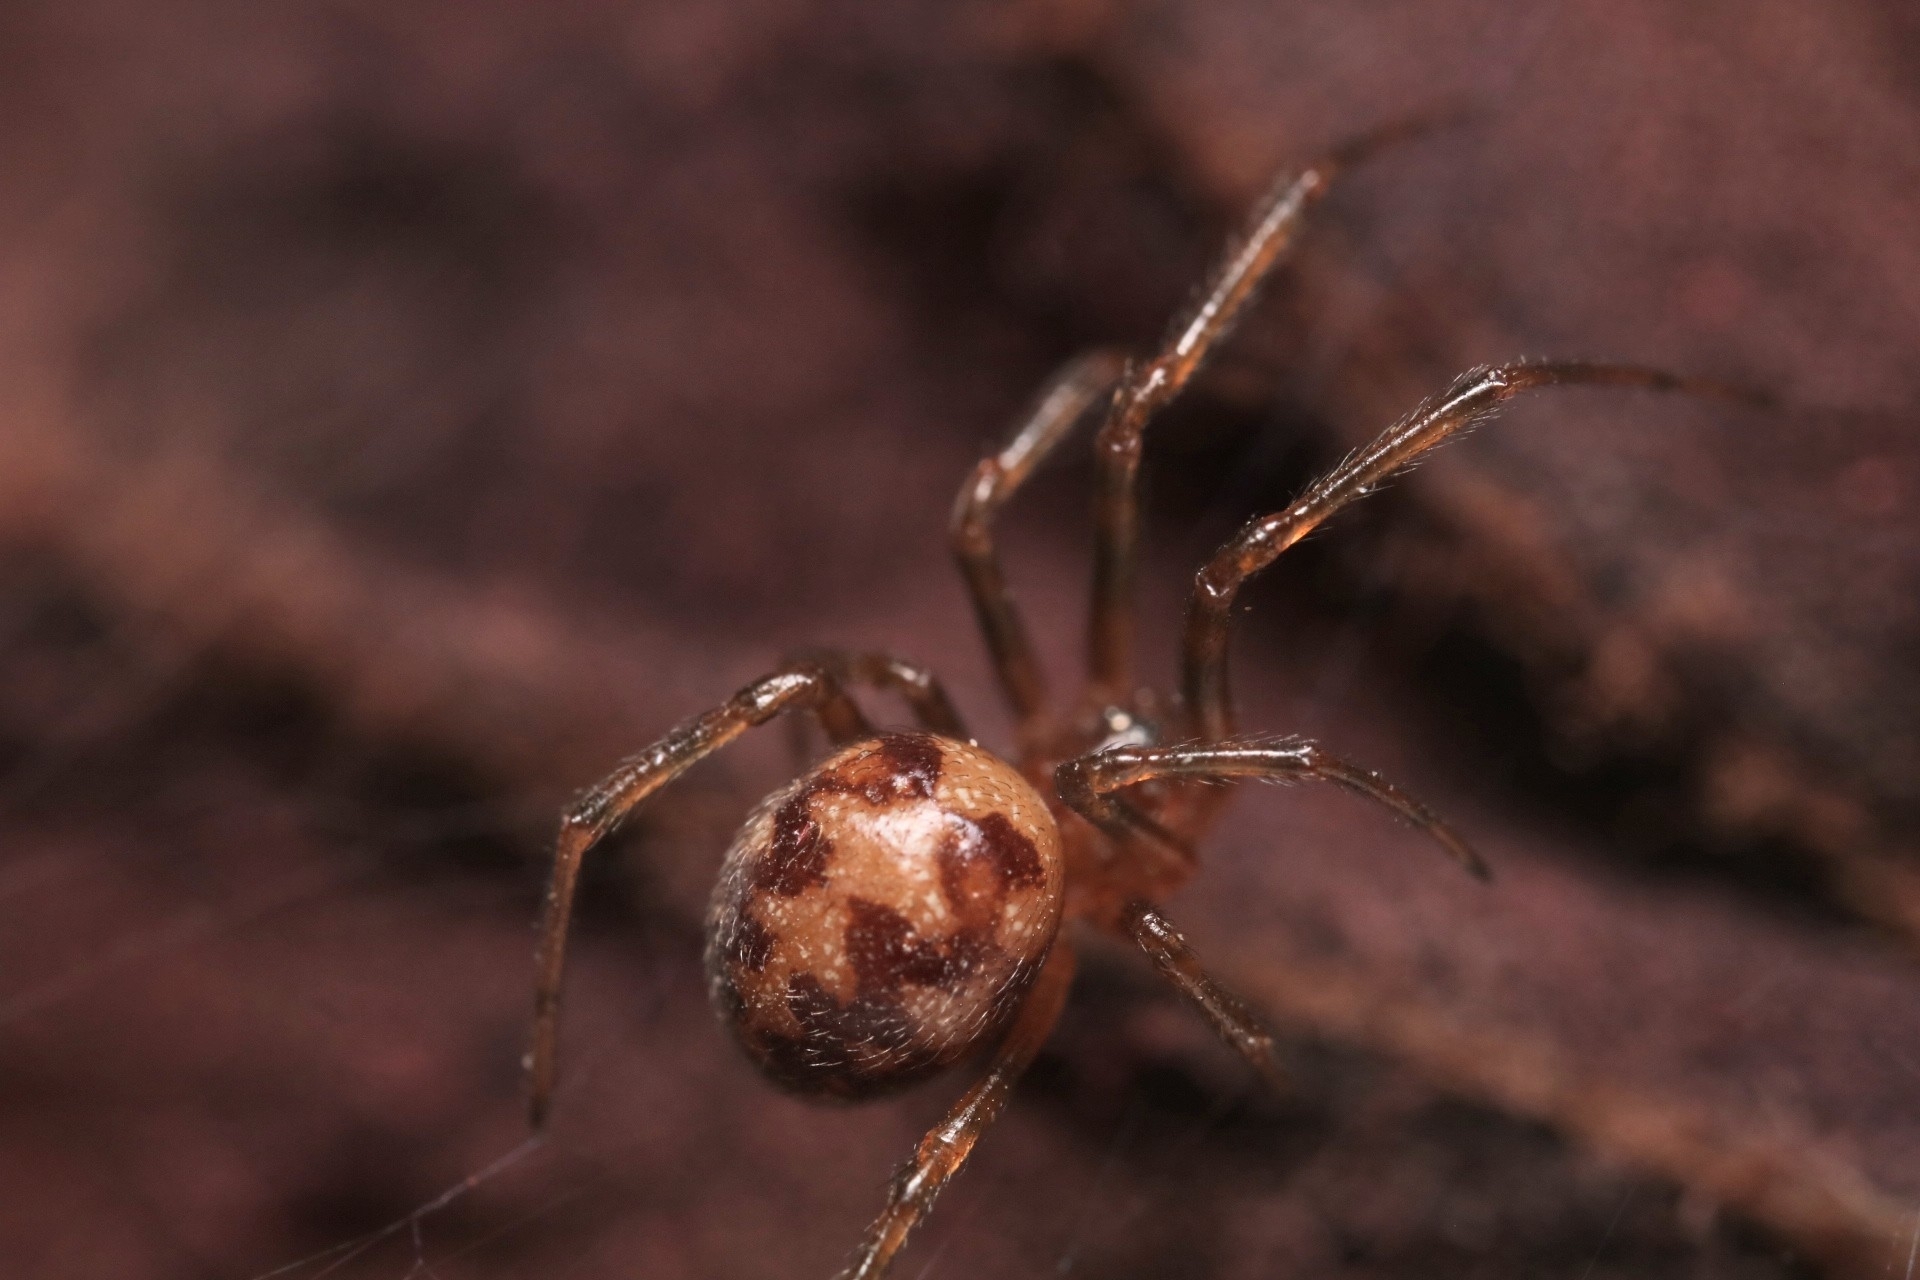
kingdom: Animalia
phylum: Arthropoda
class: Arachnida
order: Araneae
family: Theridiidae
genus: Steatoda
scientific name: Steatoda triangulosa
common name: Triangulate bud spider
